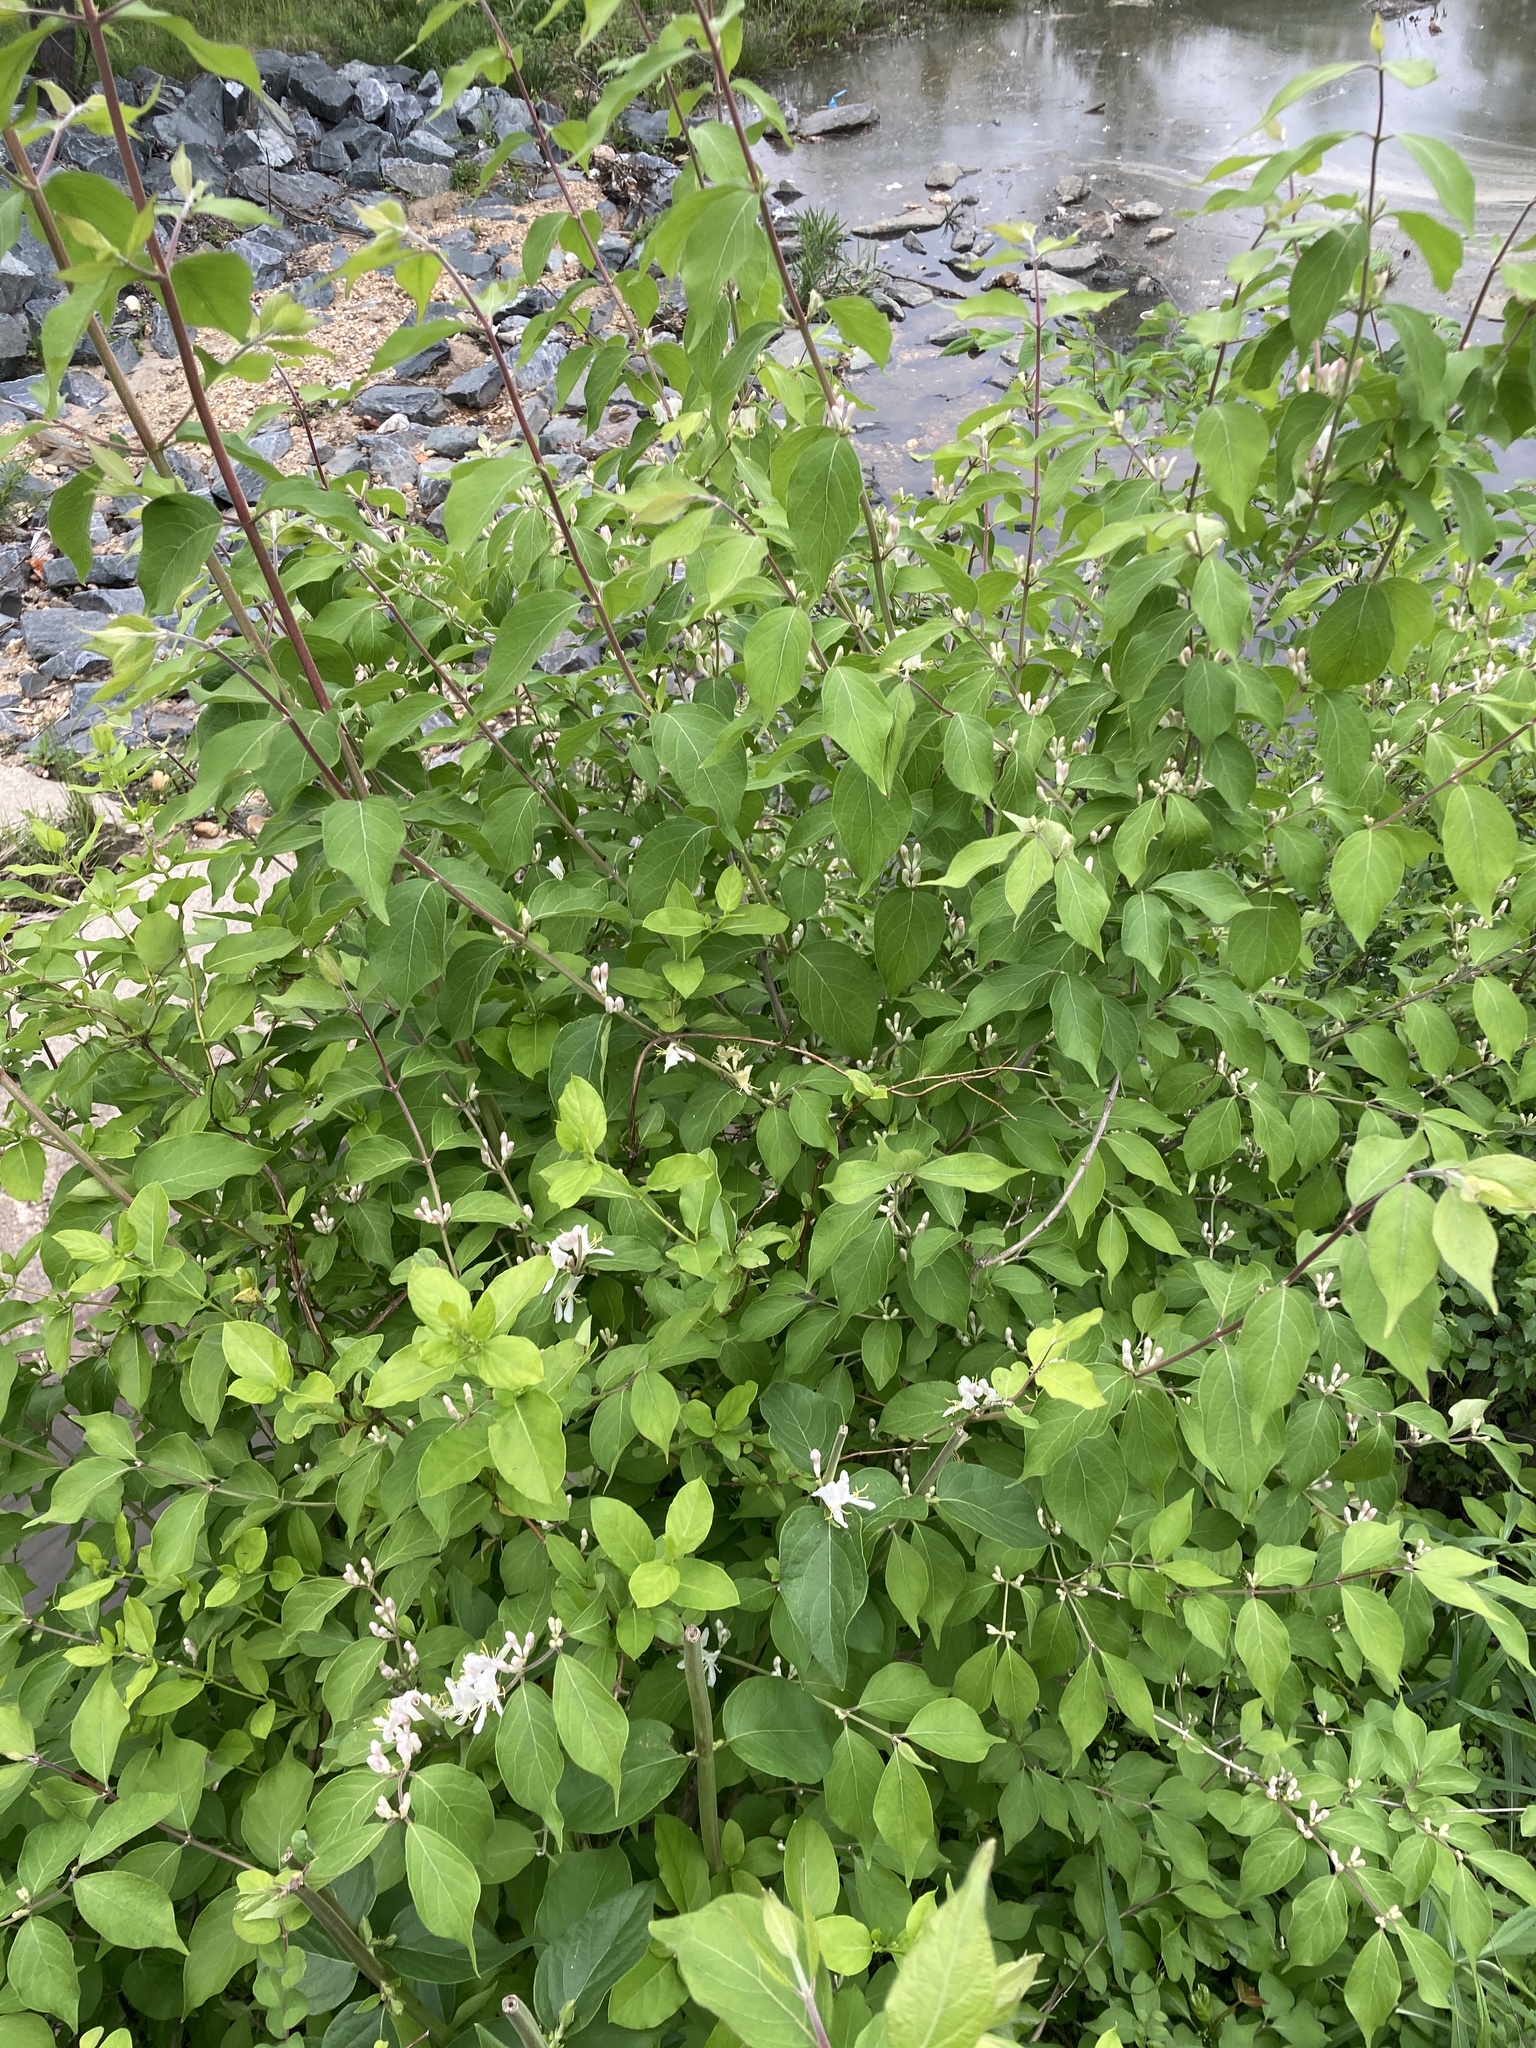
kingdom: Plantae
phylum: Tracheophyta
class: Magnoliopsida
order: Dipsacales
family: Caprifoliaceae
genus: Lonicera
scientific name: Lonicera maackii
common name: Amur honeysuckle
